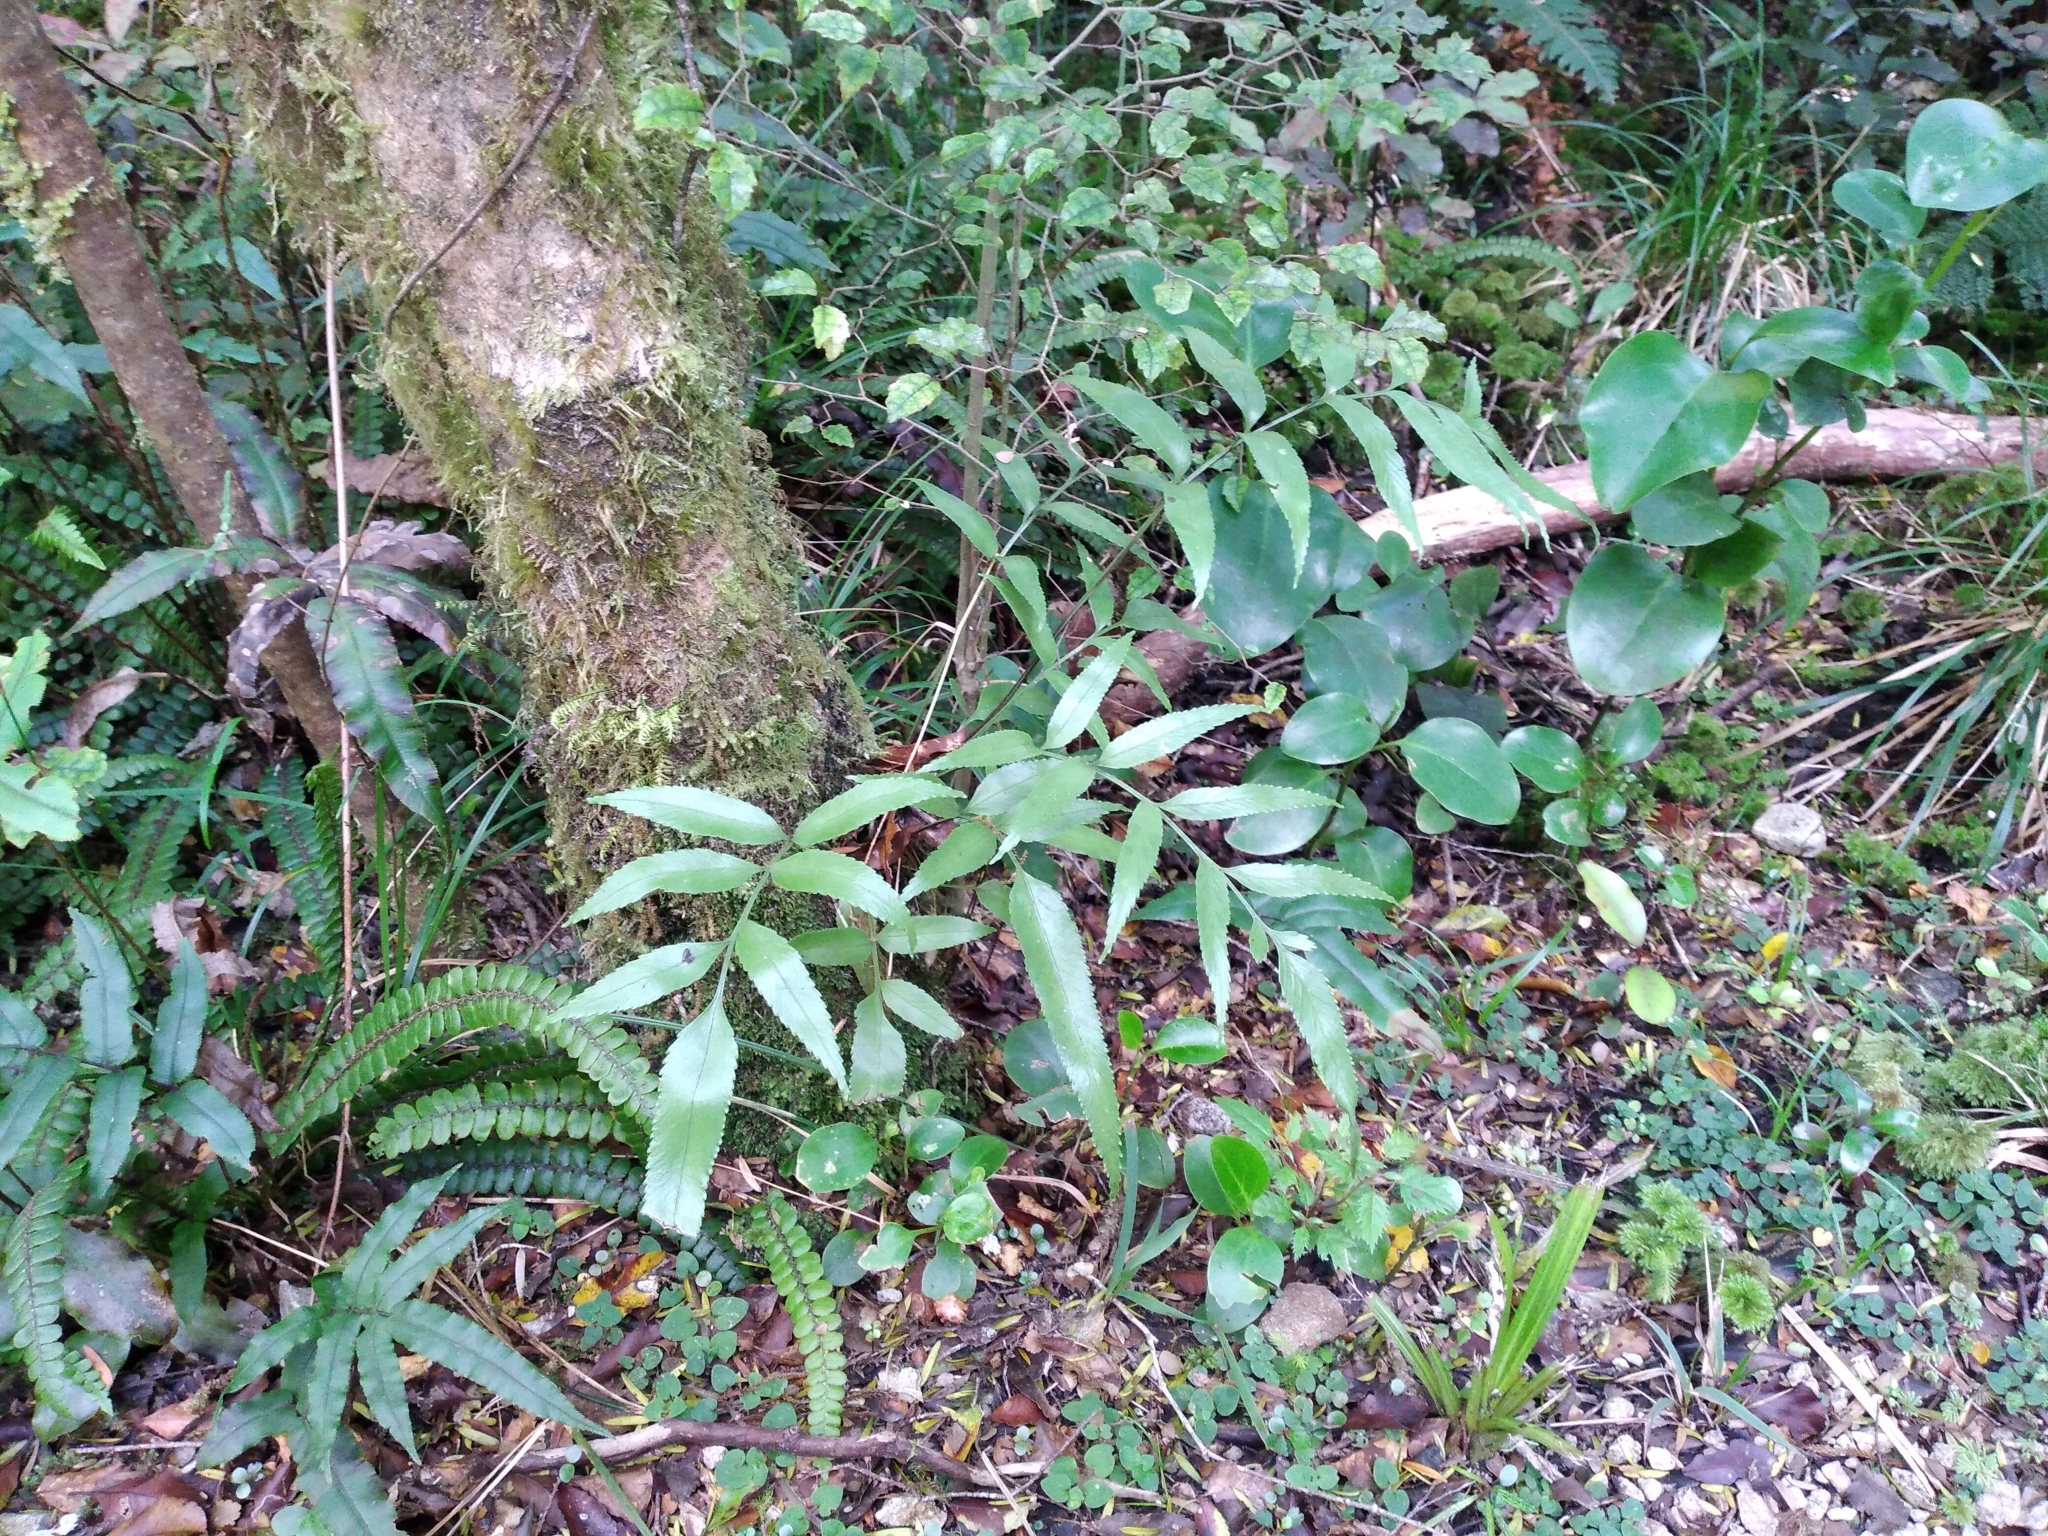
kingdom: Plantae
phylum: Tracheophyta
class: Polypodiopsida
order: Polypodiales
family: Aspleniaceae
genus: Asplenium
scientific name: Asplenium lepidotum
